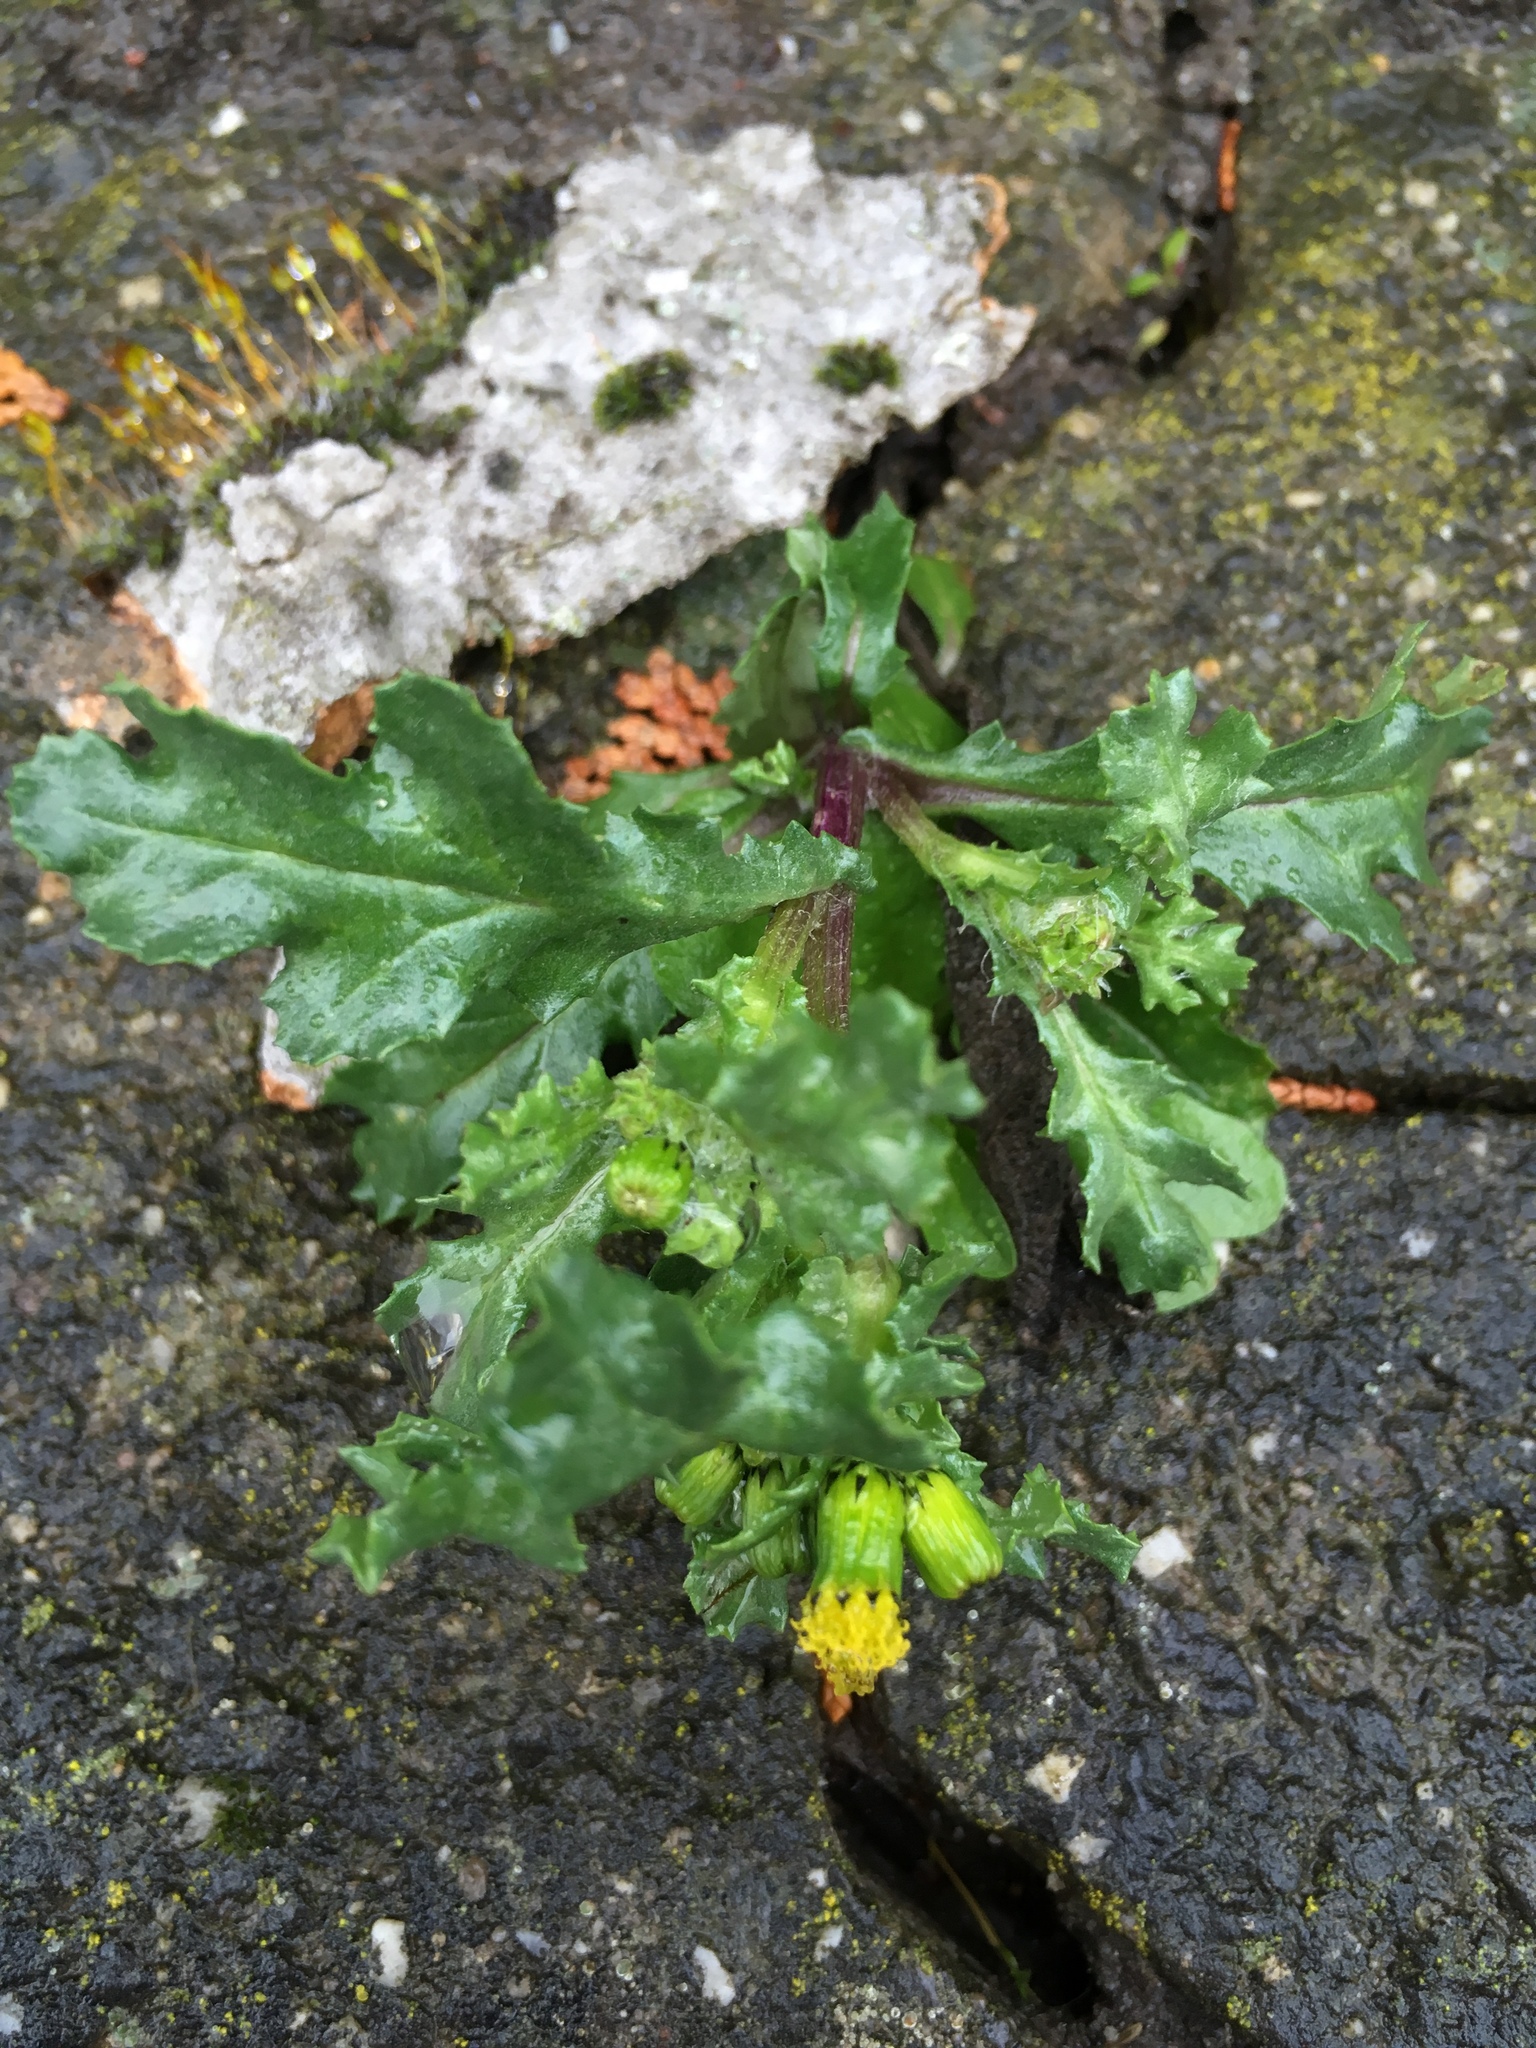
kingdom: Plantae
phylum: Tracheophyta
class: Magnoliopsida
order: Asterales
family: Asteraceae
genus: Senecio
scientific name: Senecio vulgaris
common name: Old-man-in-the-spring
